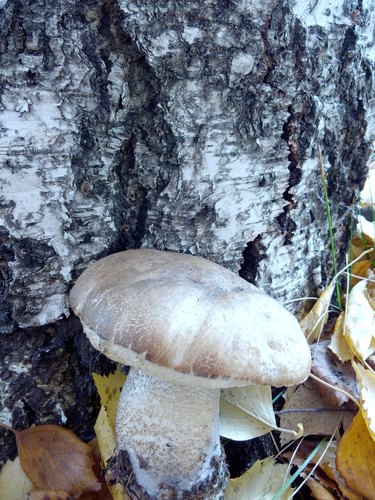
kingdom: Fungi
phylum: Basidiomycota
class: Agaricomycetes
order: Boletales
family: Boletaceae
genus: Leccinum
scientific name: Leccinum scabrum
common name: Blushing bolete
